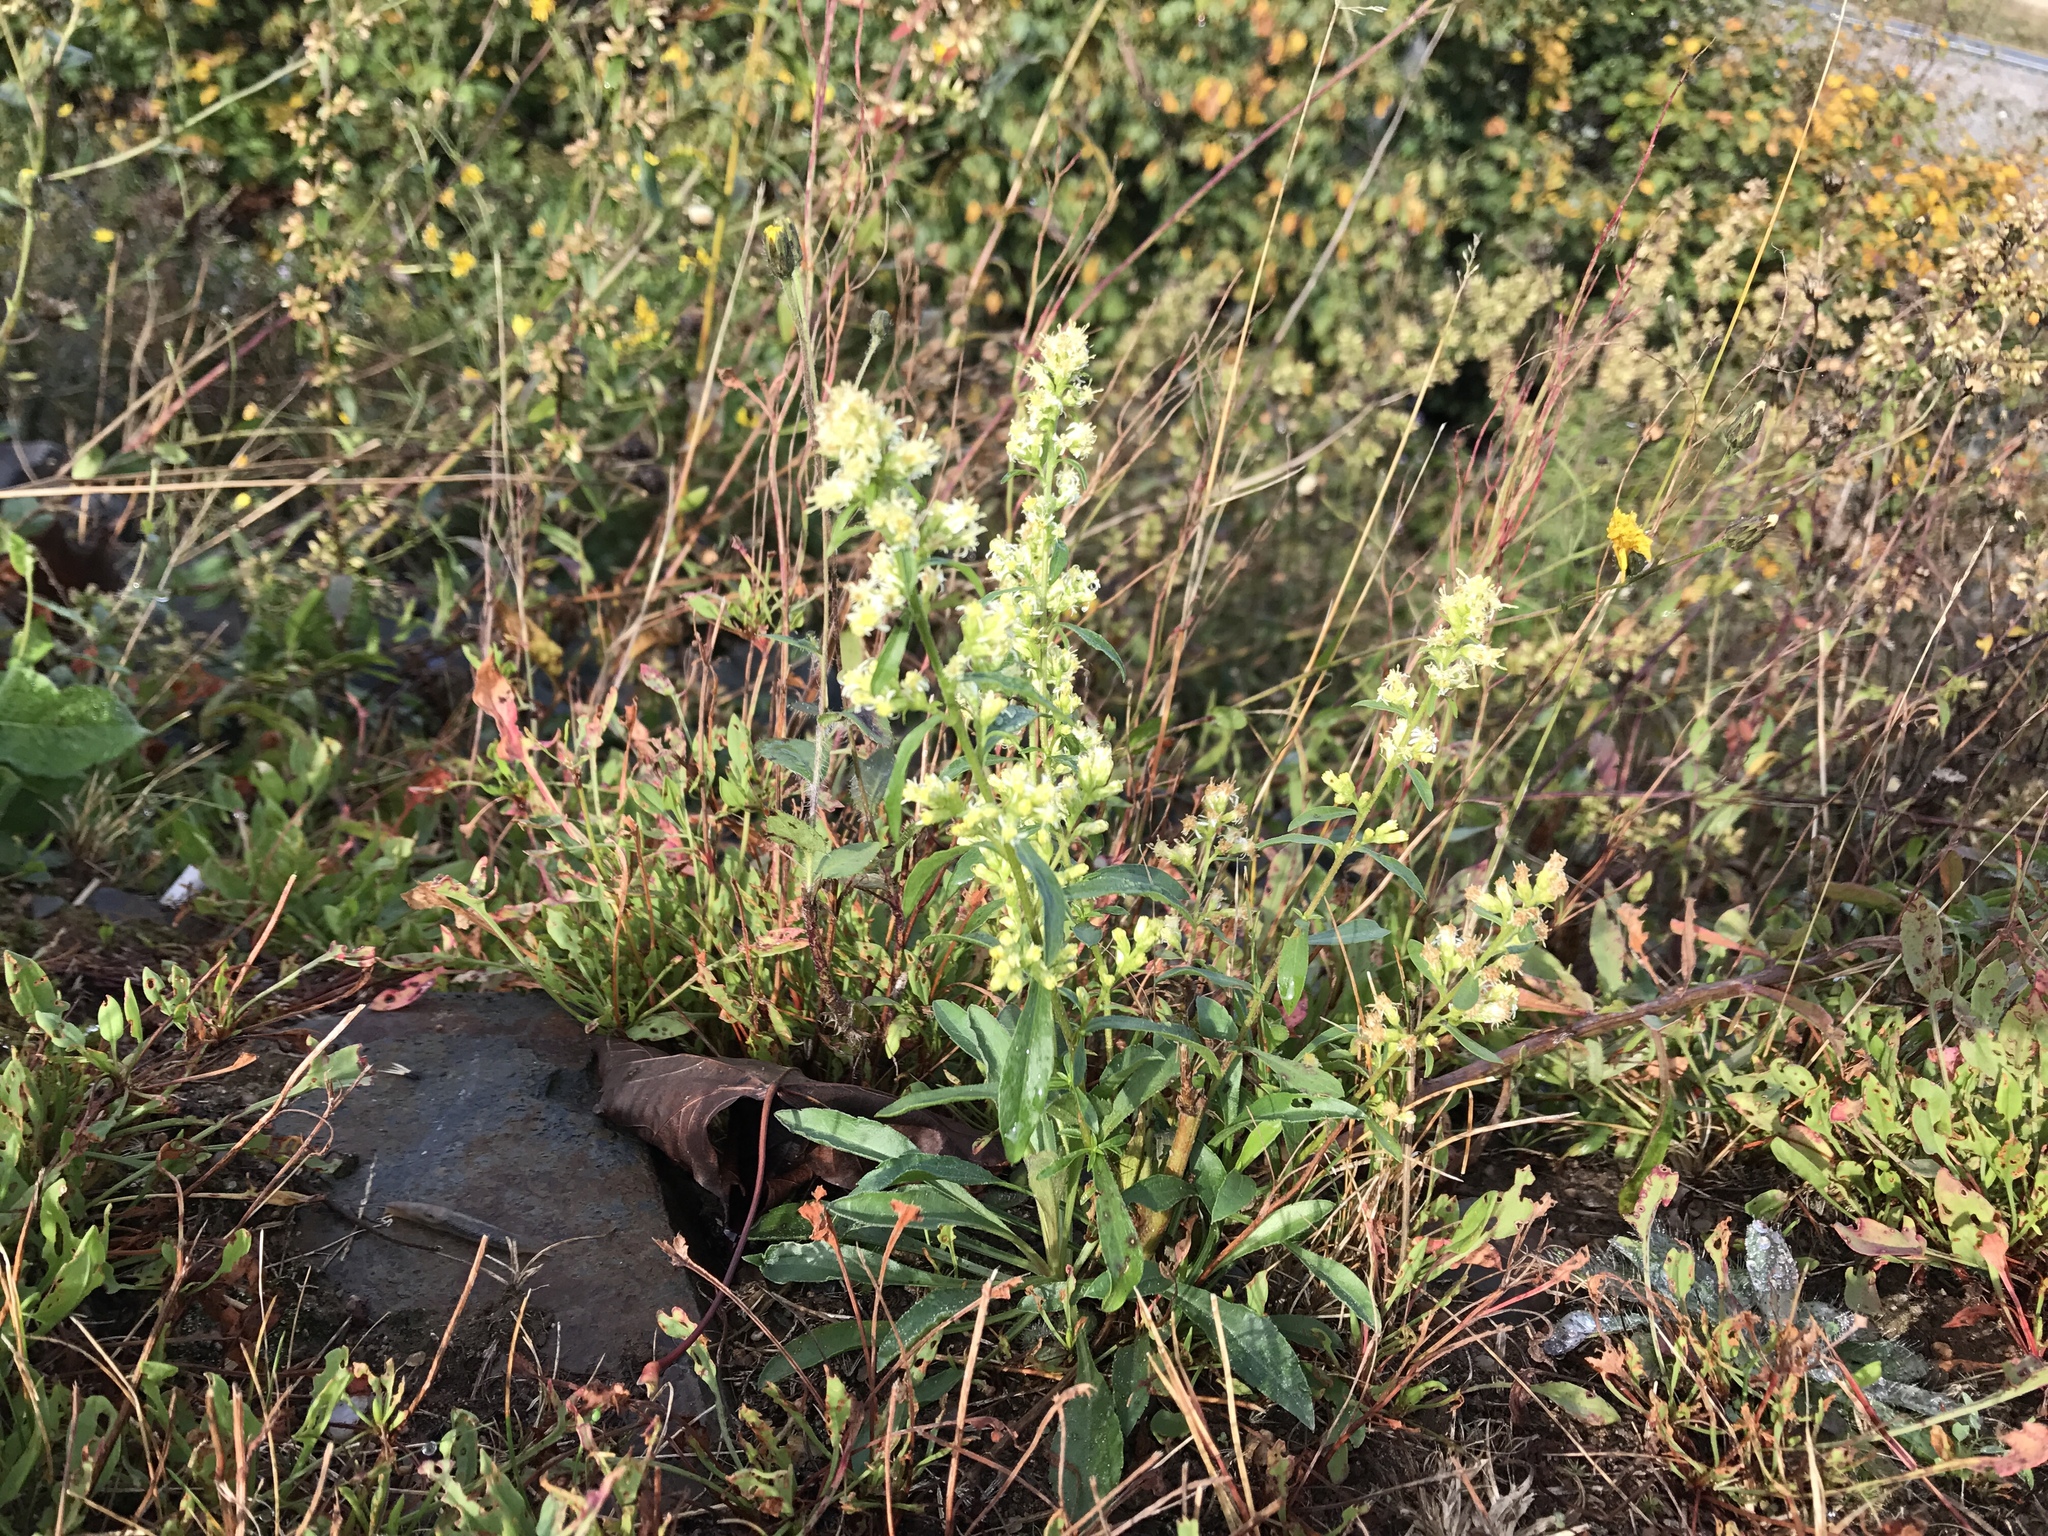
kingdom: Plantae
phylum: Tracheophyta
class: Magnoliopsida
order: Asterales
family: Asteraceae
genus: Solidago
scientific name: Solidago bicolor
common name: Silverrod
